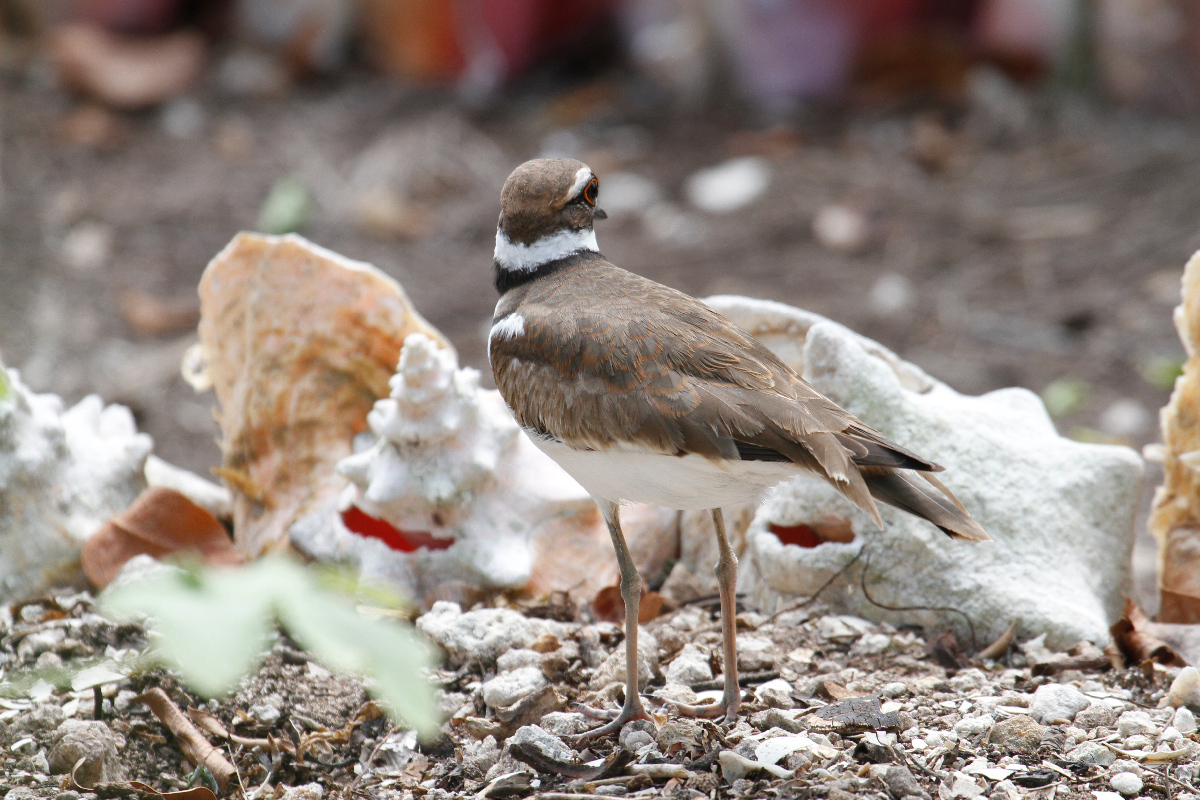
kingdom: Animalia
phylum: Chordata
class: Aves
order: Charadriiformes
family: Charadriidae
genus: Charadrius
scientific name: Charadrius vociferus
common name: Killdeer
